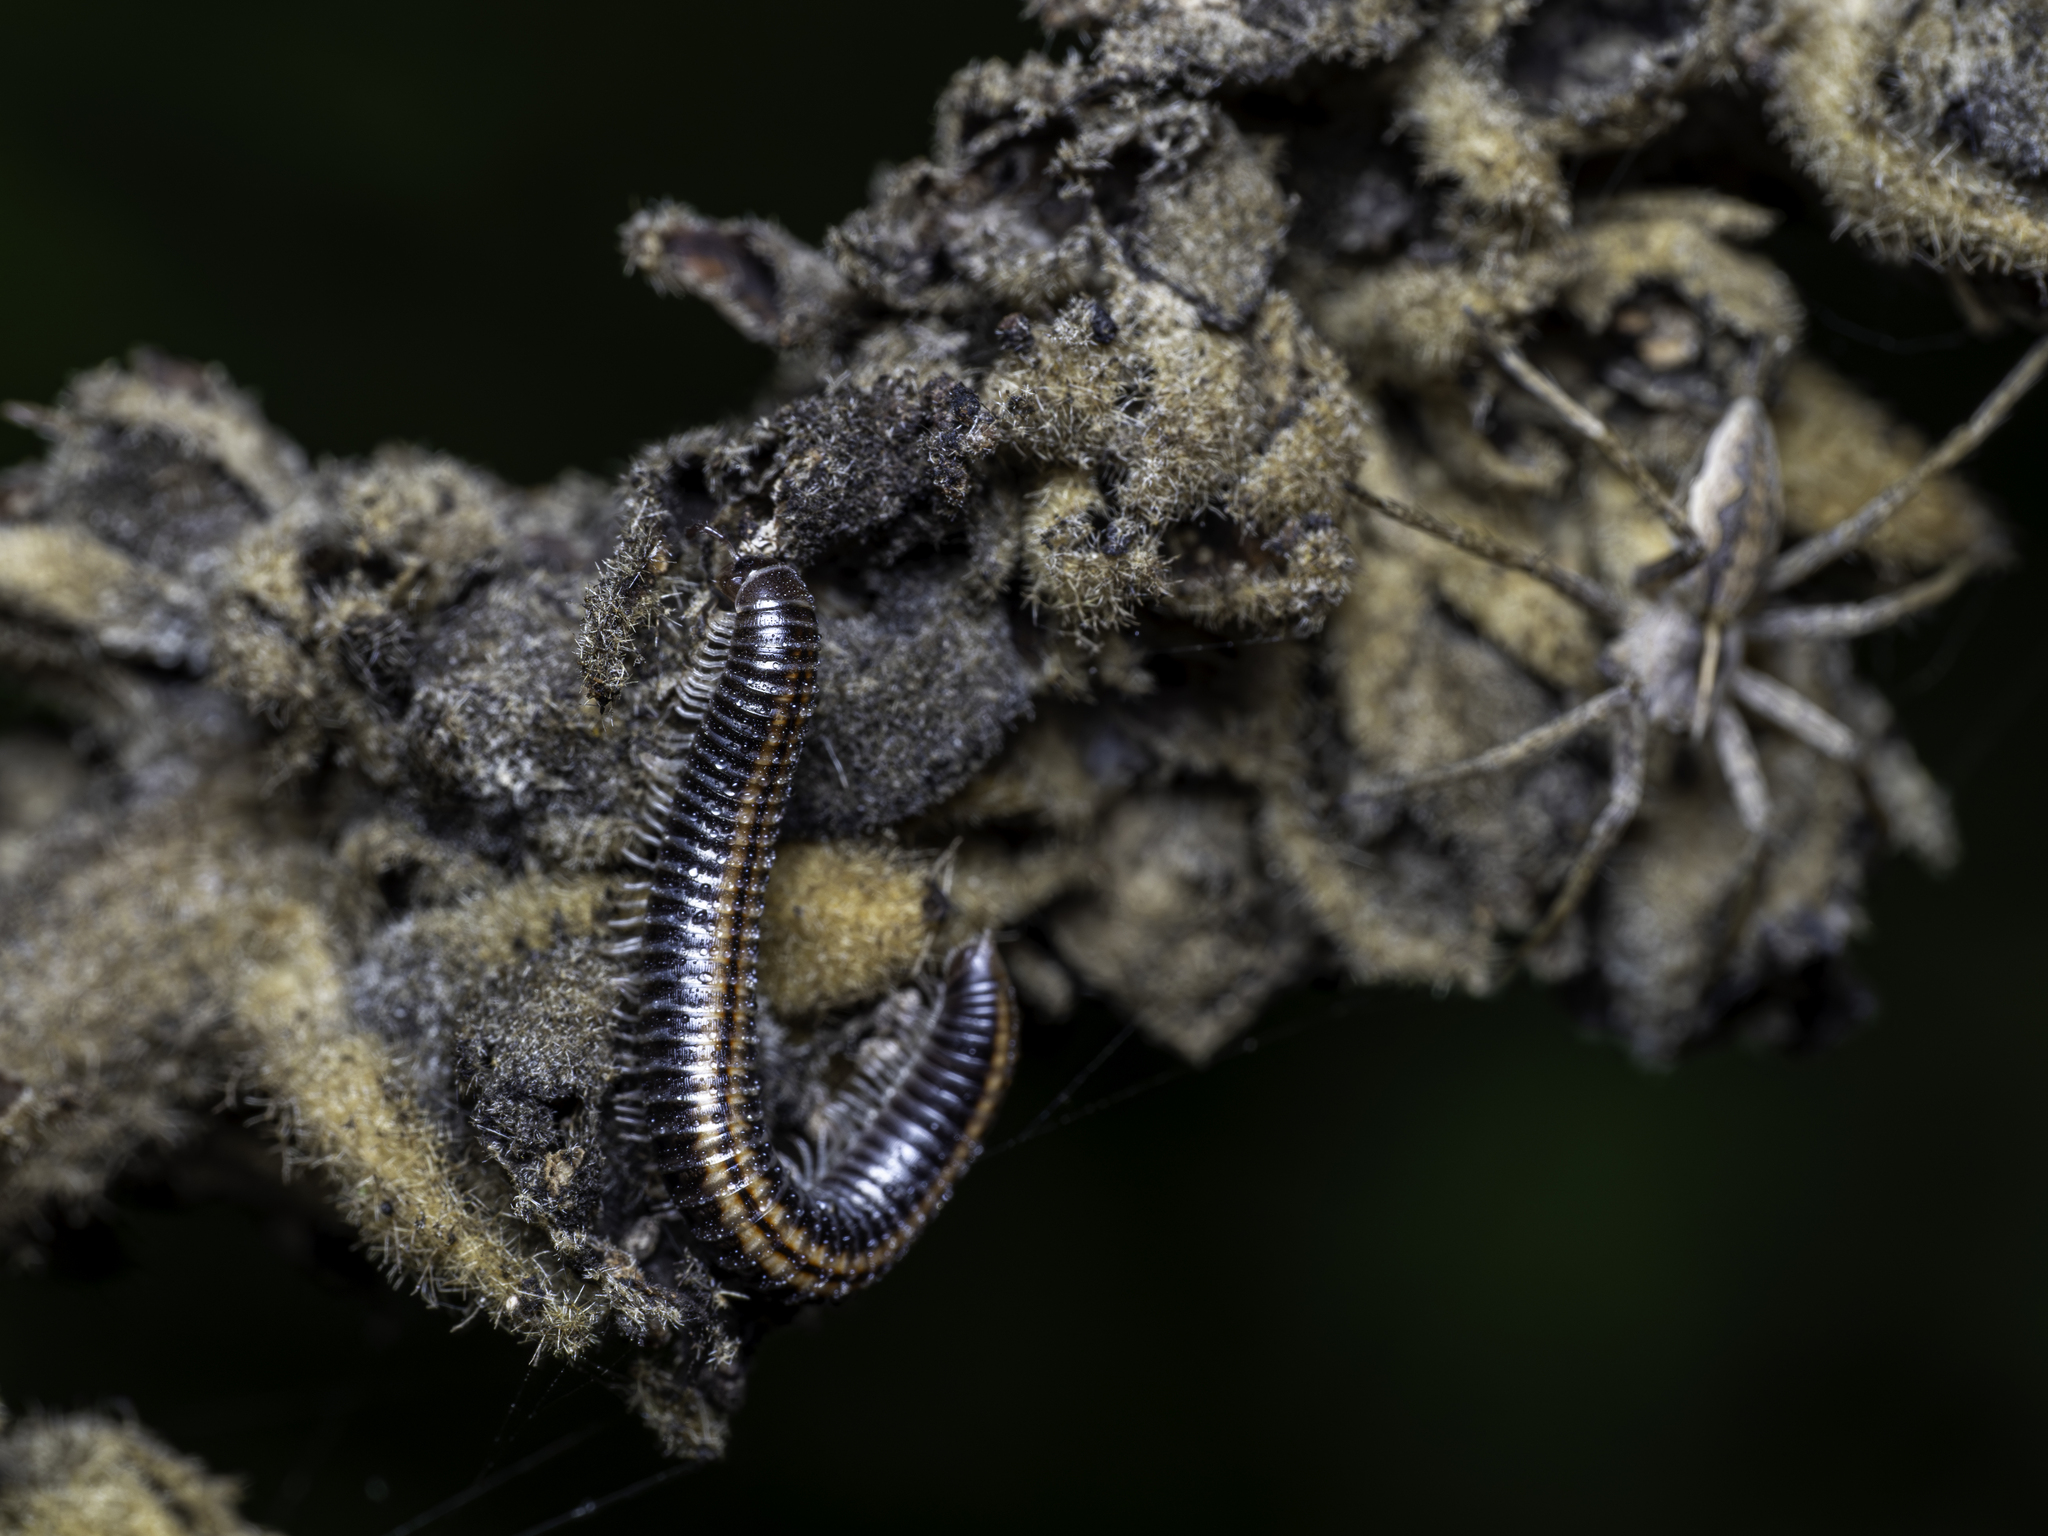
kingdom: Animalia
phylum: Arthropoda
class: Diplopoda
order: Julida
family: Julidae
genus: Ommatoiulus
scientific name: Ommatoiulus sabulosus
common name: Striped millipede
